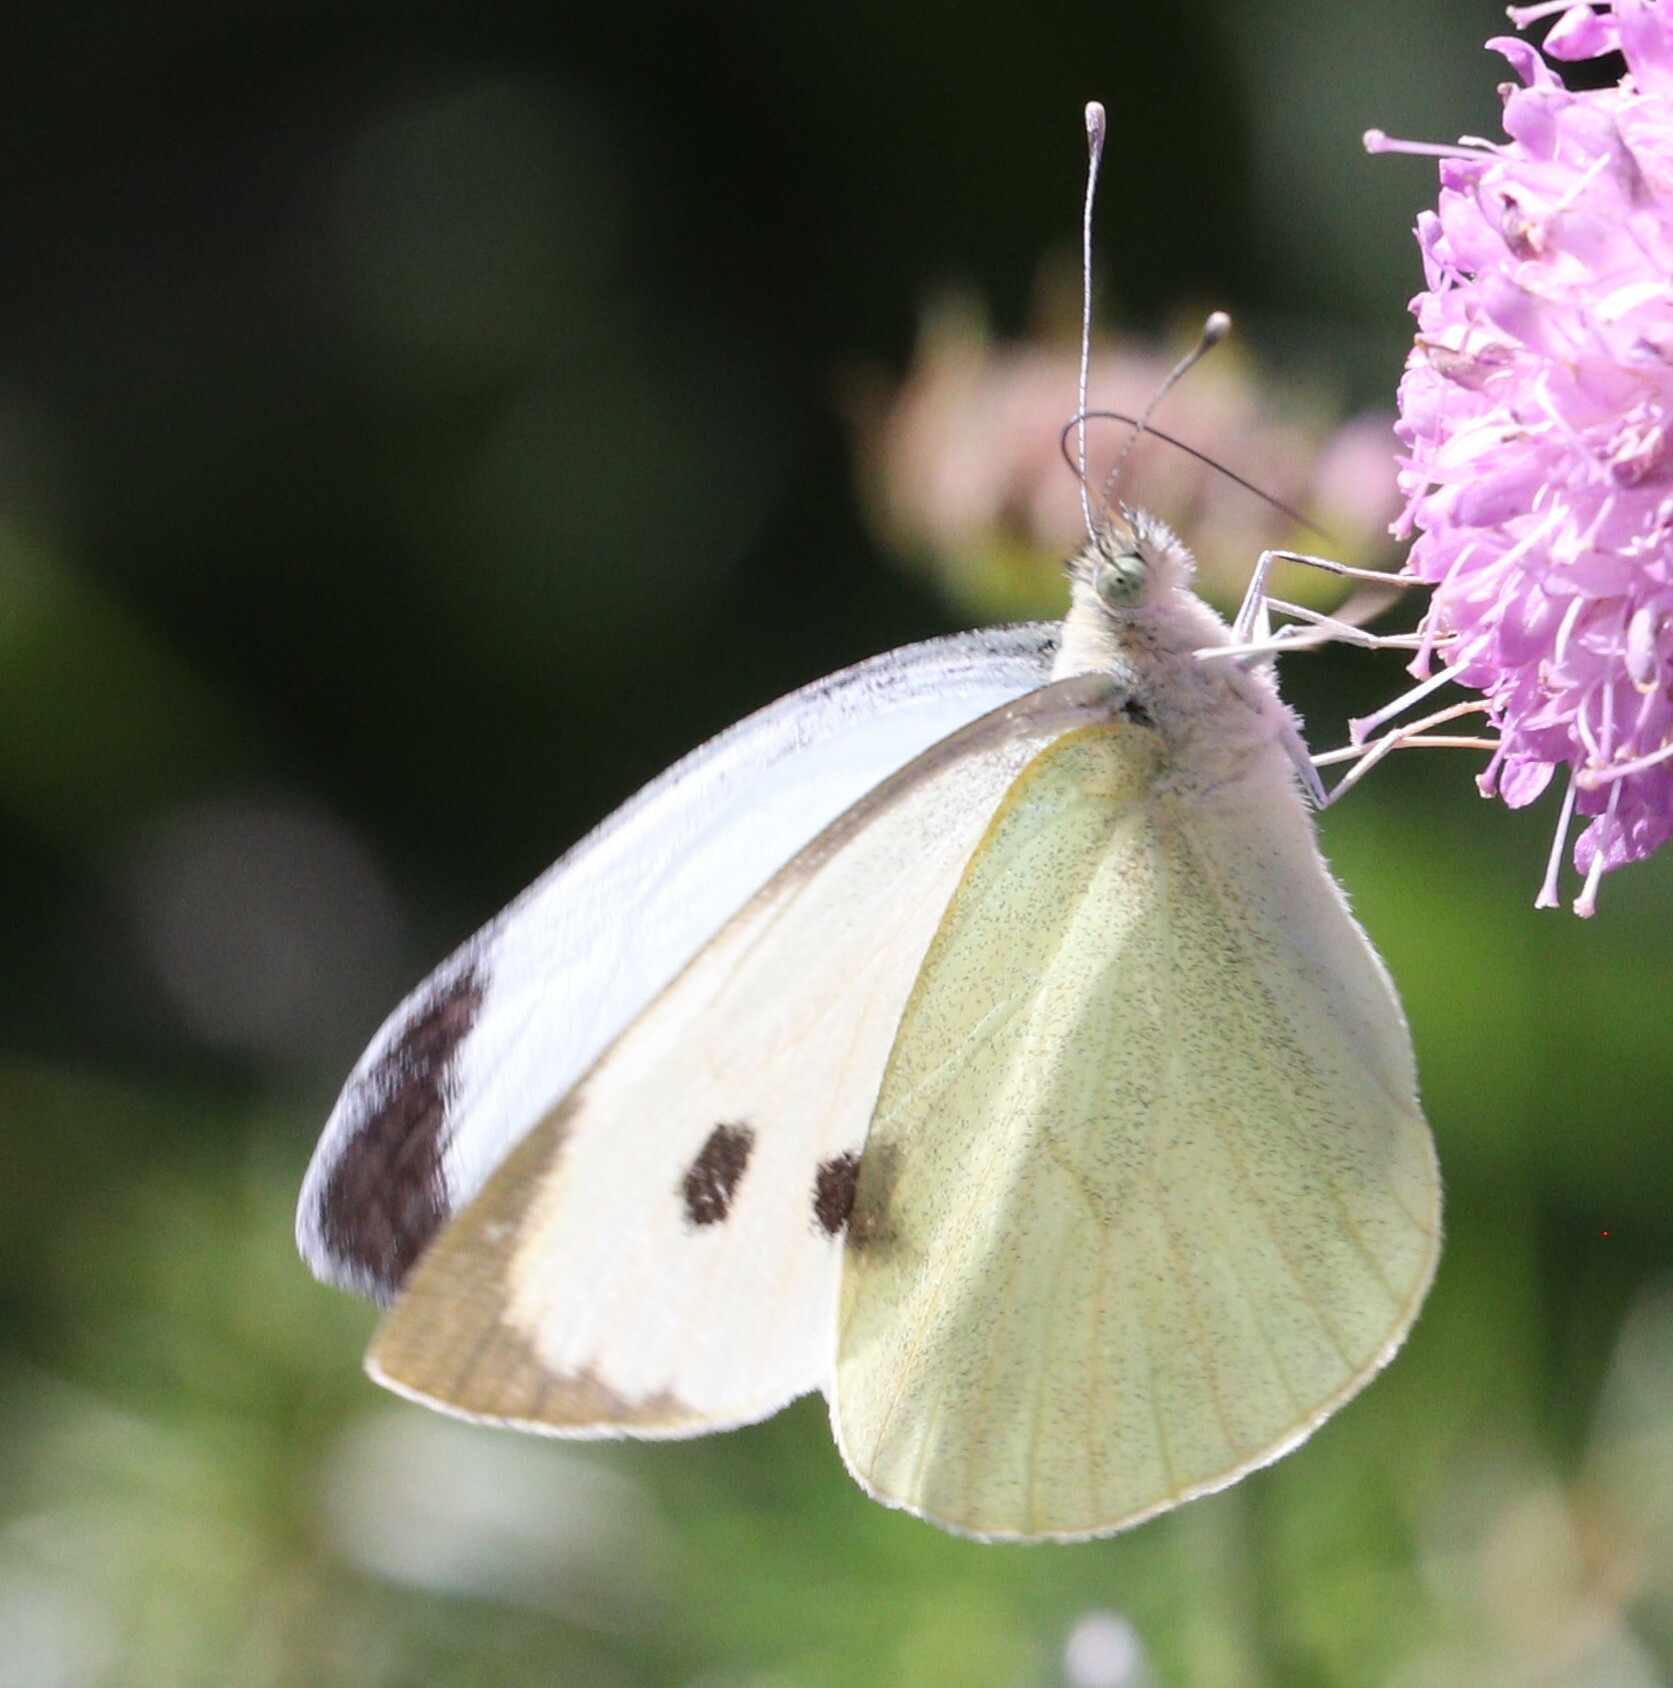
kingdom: Animalia
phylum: Arthropoda
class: Insecta
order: Lepidoptera
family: Pieridae
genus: Pieris
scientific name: Pieris brassicae
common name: Large white
